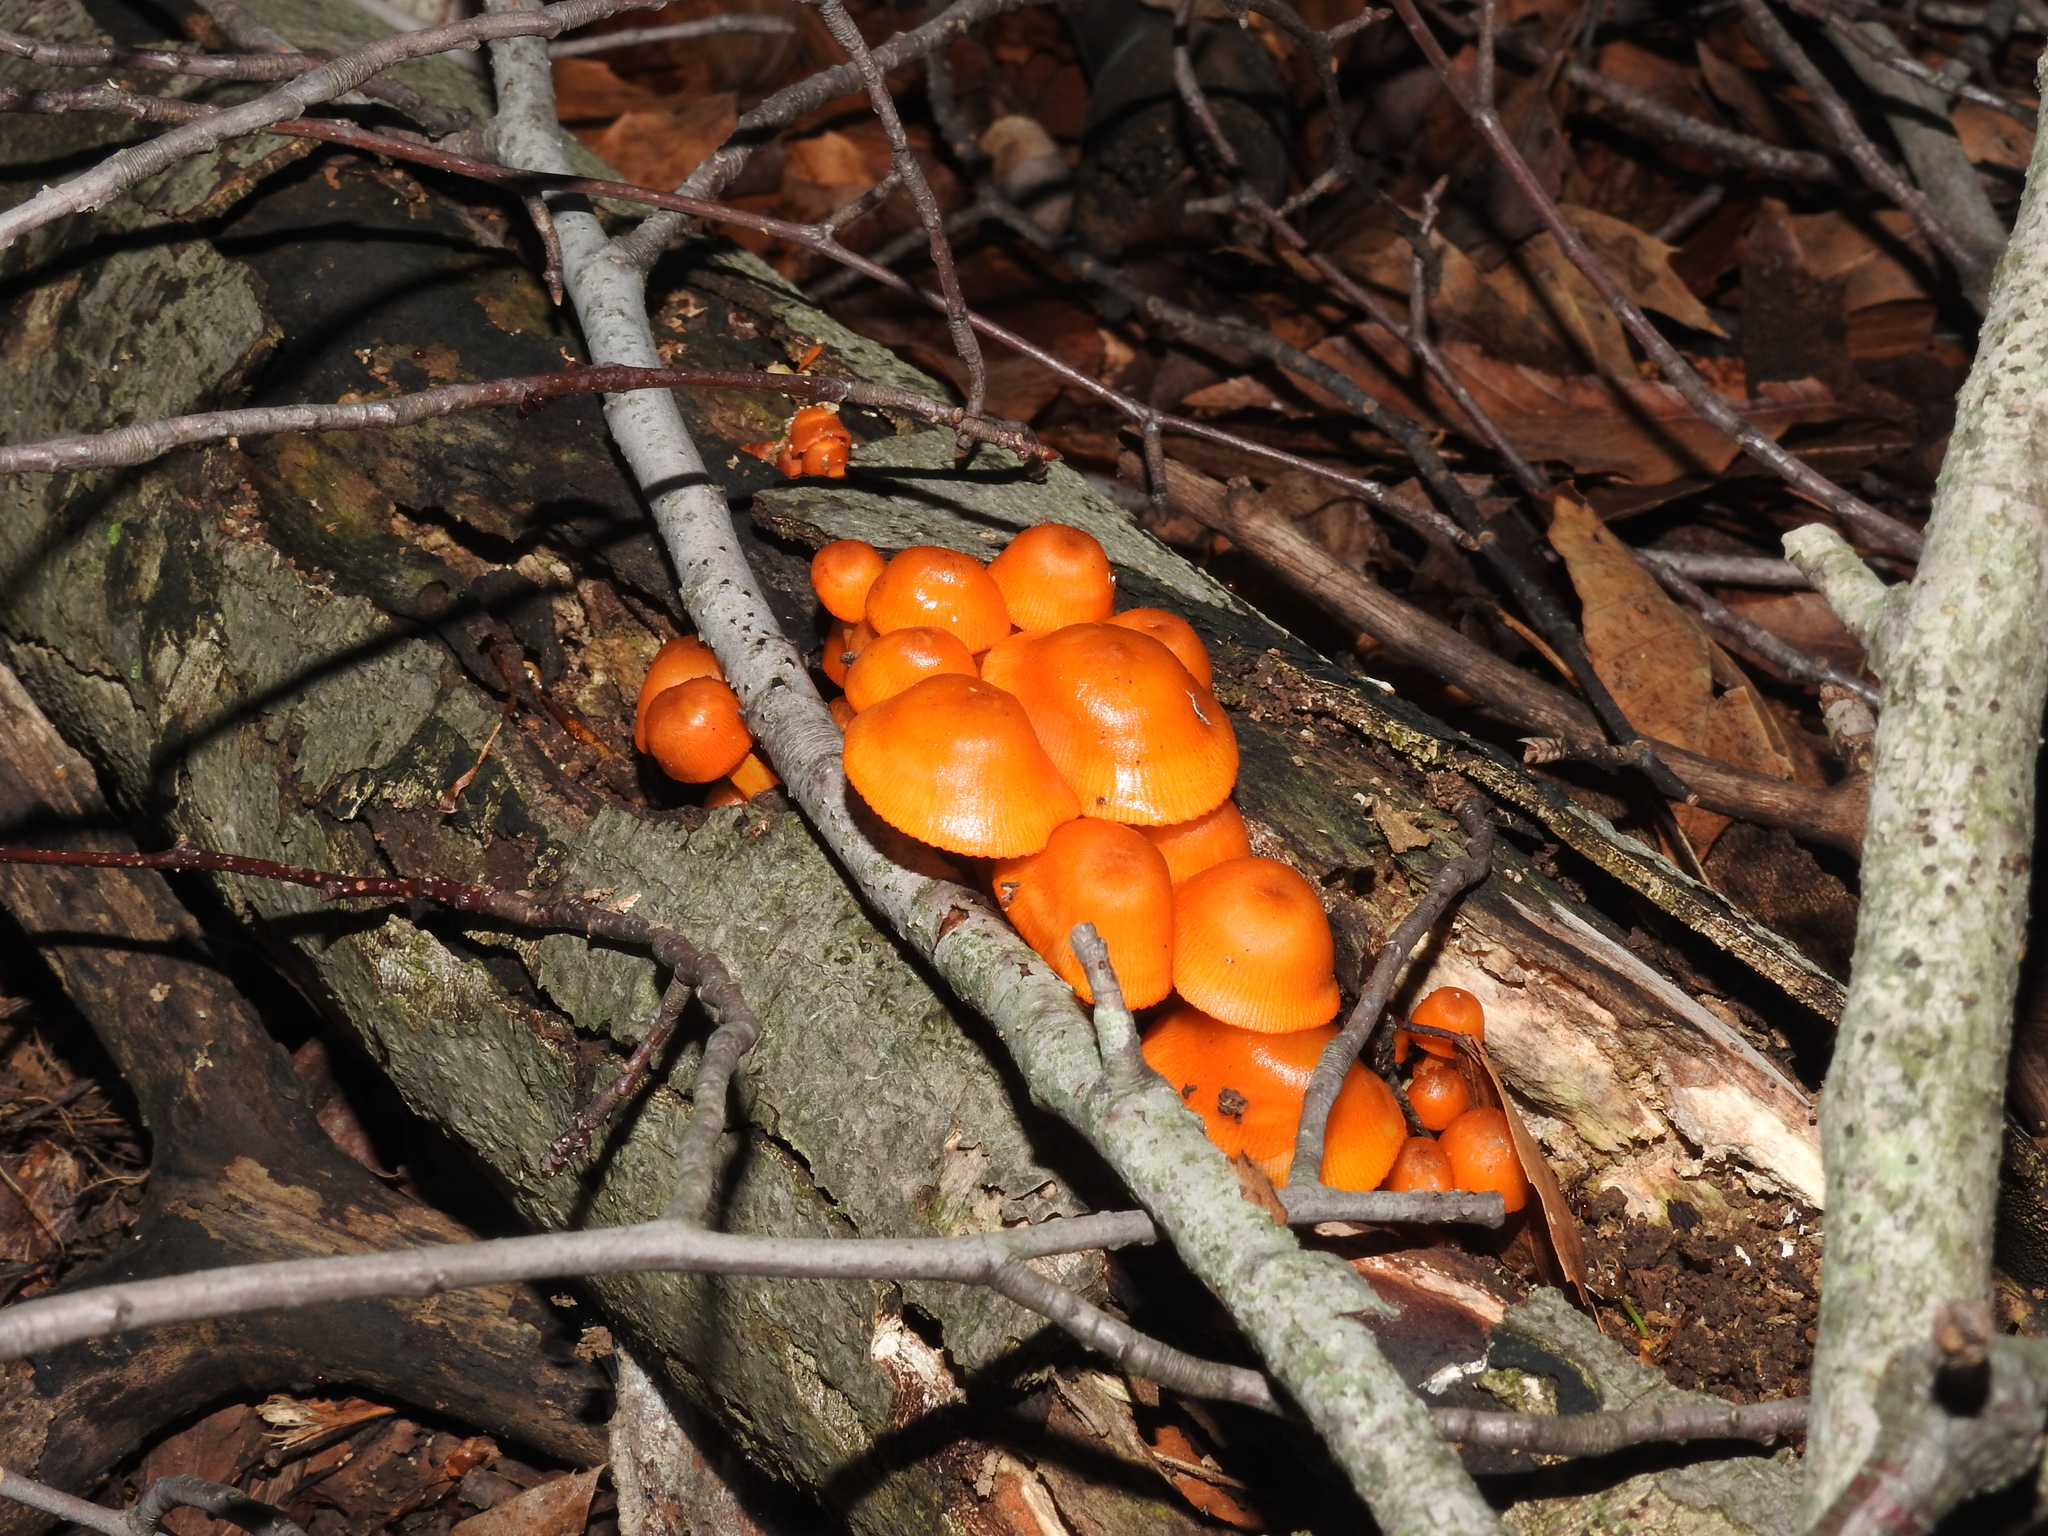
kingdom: Fungi
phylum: Basidiomycota
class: Agaricomycetes
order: Agaricales
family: Mycenaceae
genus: Mycena
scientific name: Mycena leaiana
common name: Orange mycena
